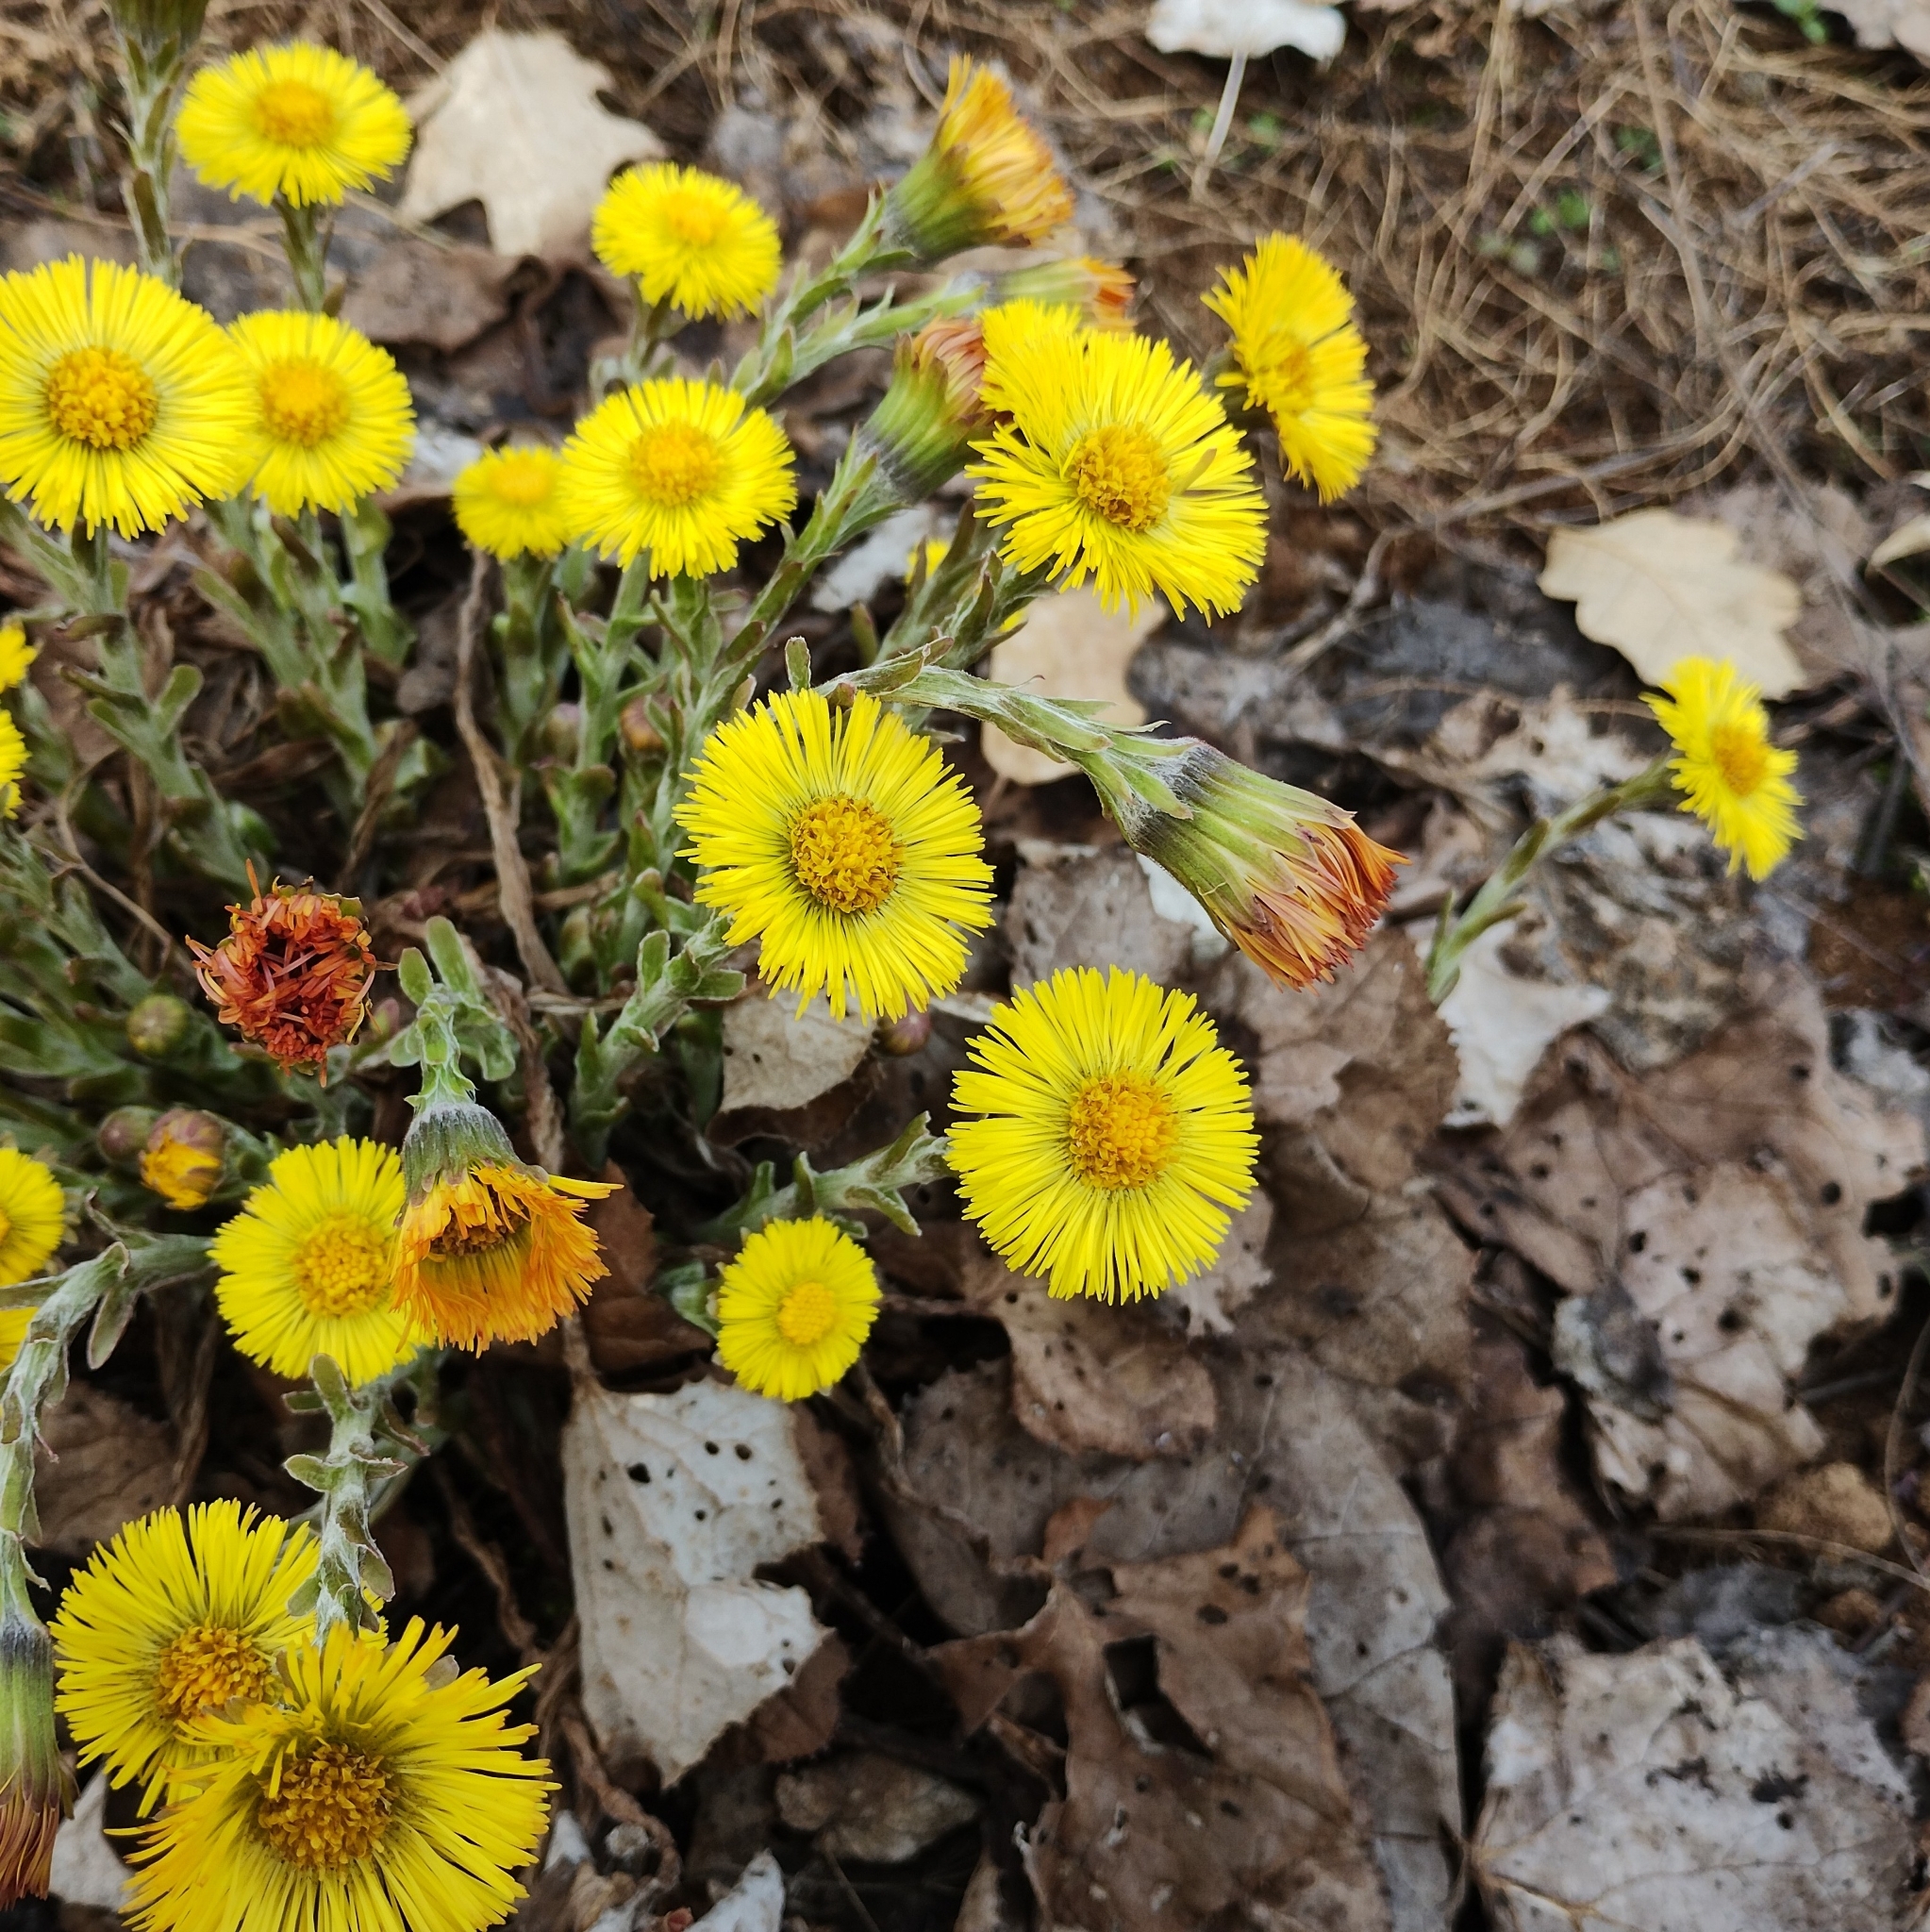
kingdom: Plantae
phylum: Tracheophyta
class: Magnoliopsida
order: Asterales
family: Asteraceae
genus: Tussilago
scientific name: Tussilago farfara
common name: Coltsfoot
